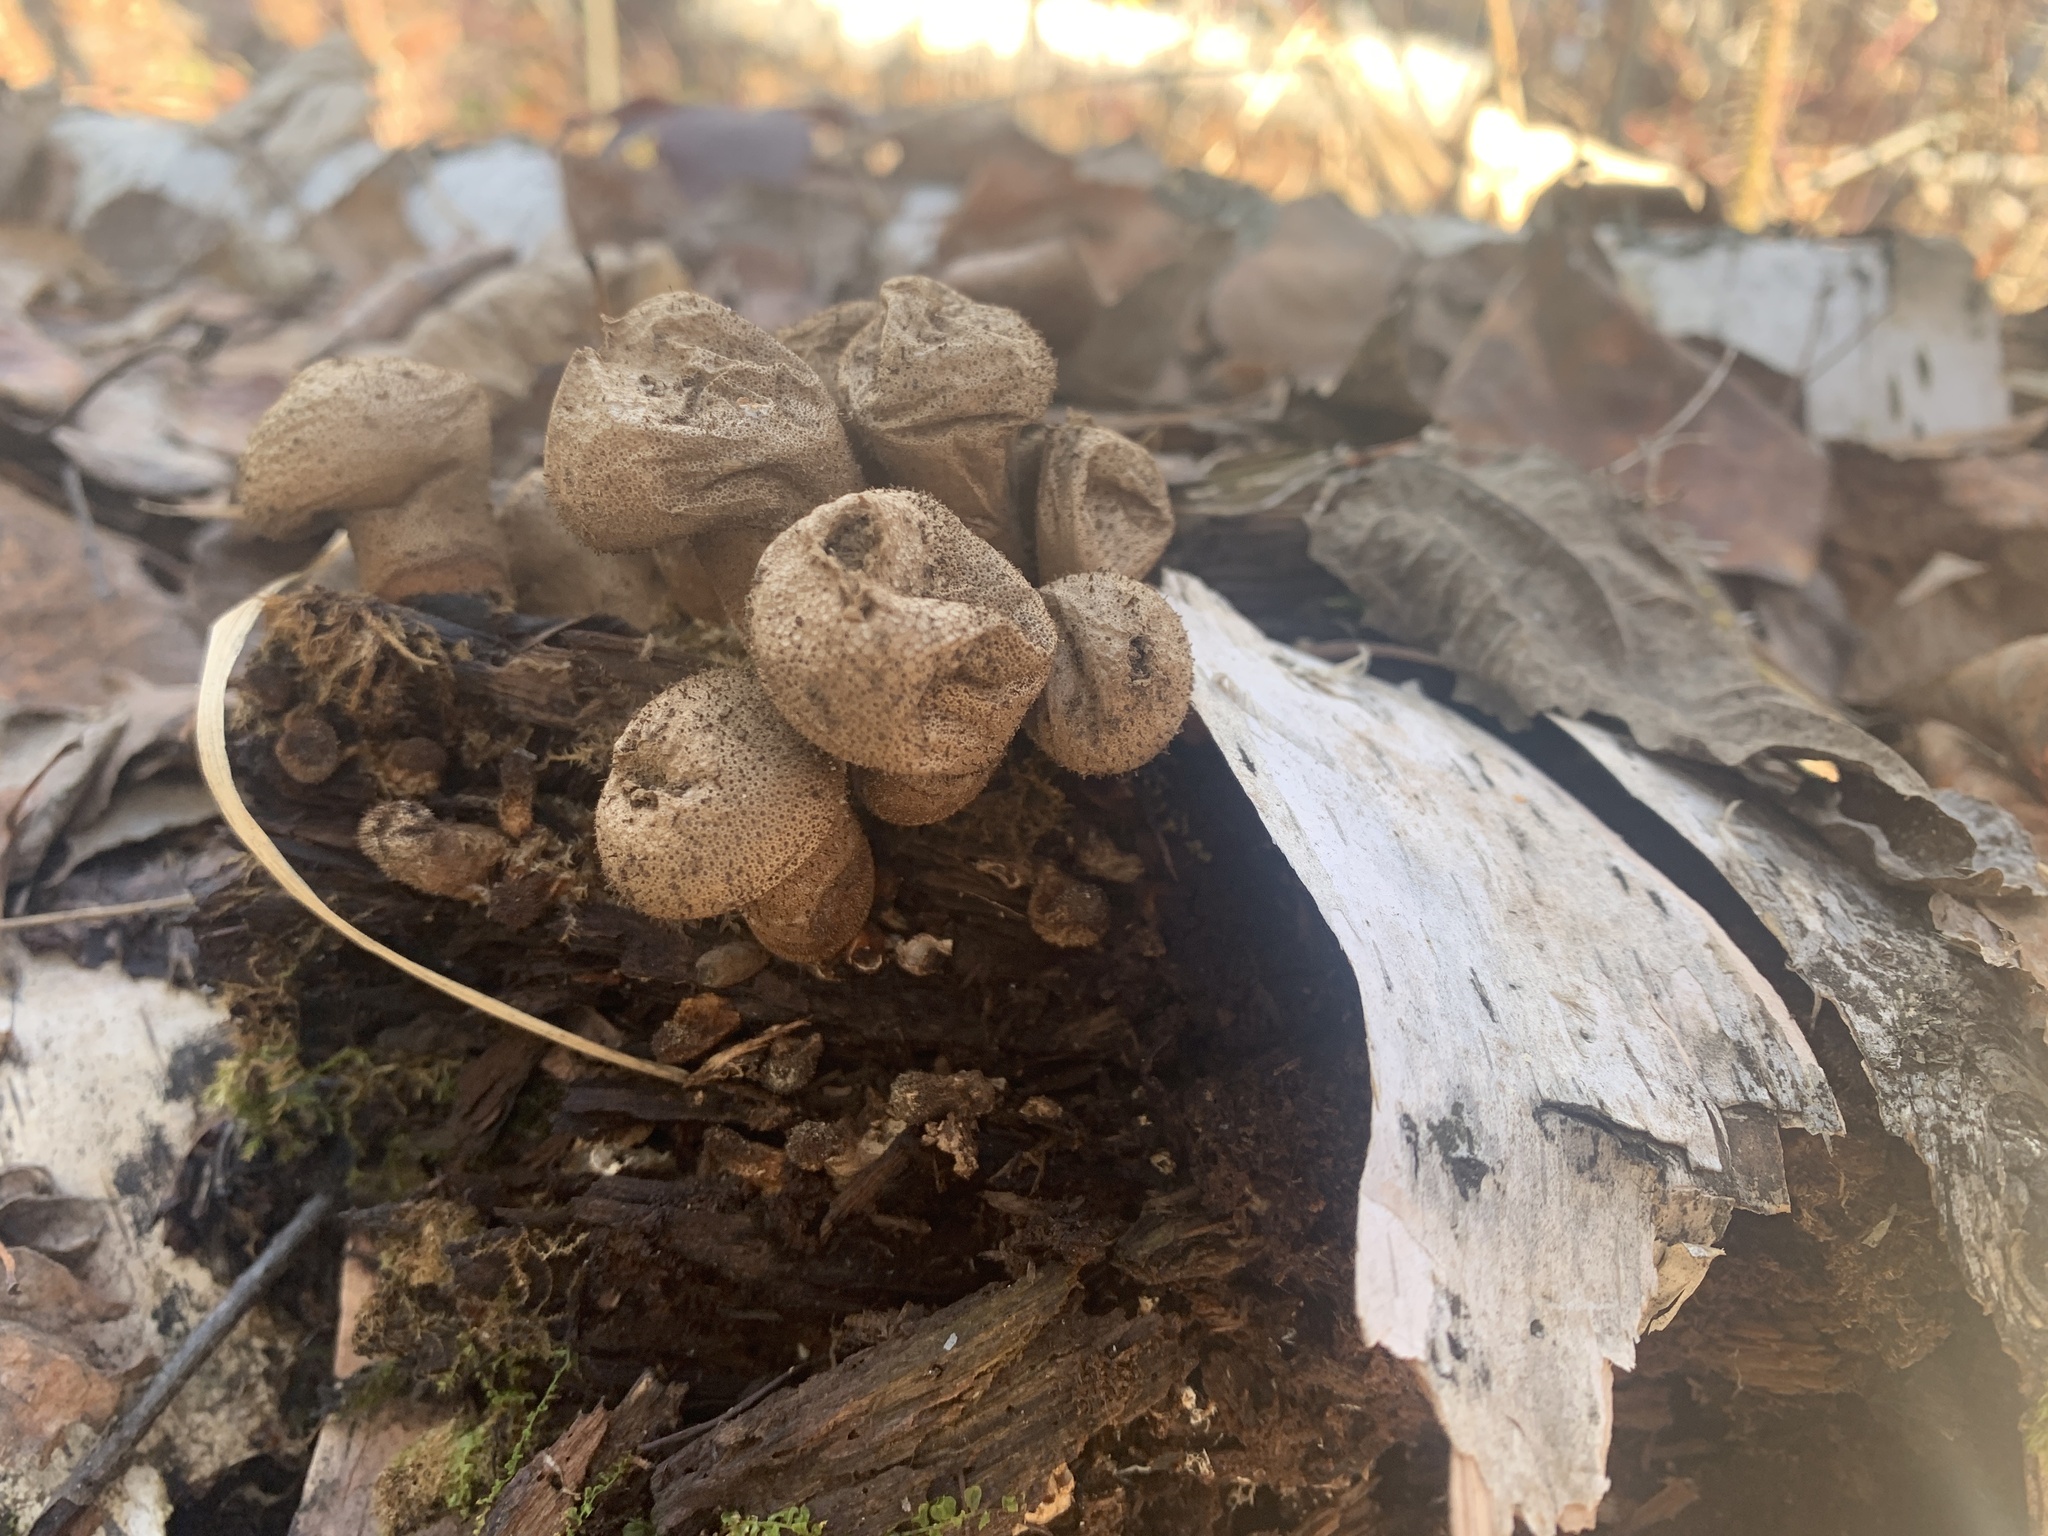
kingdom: Fungi
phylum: Basidiomycota
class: Agaricomycetes
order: Agaricales
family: Lycoperdaceae
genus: Apioperdon
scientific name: Apioperdon pyriforme
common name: Pear-shaped puffball
